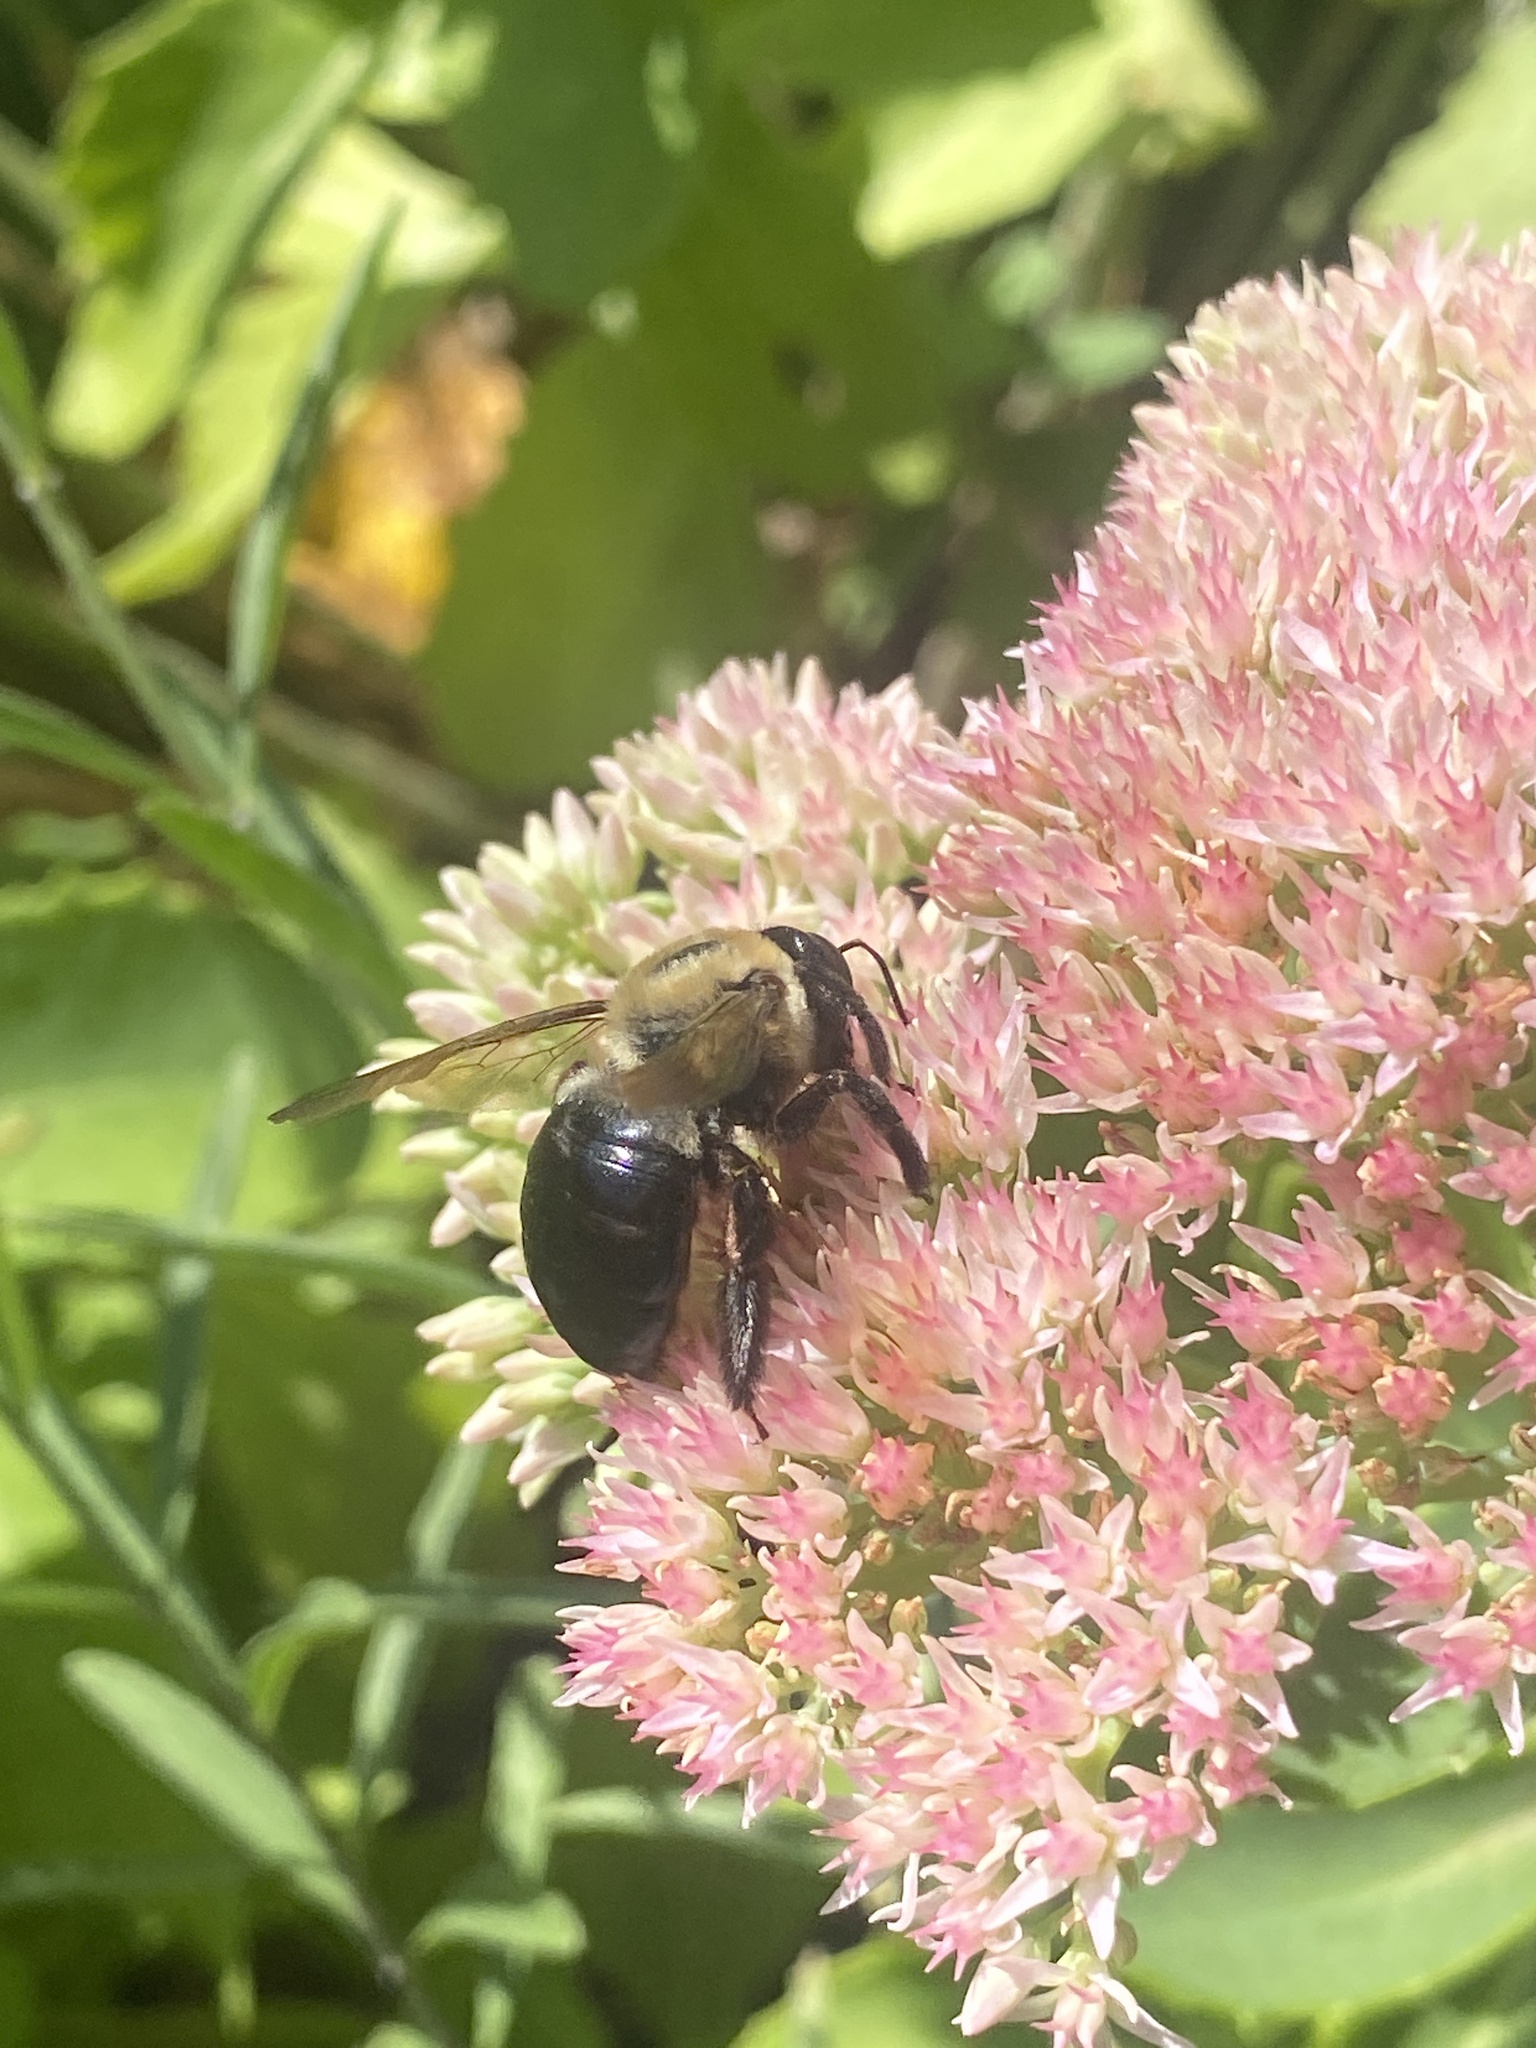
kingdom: Animalia
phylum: Arthropoda
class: Insecta
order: Hymenoptera
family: Apidae
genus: Xylocopa
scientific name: Xylocopa virginica
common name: Carpenter bee
